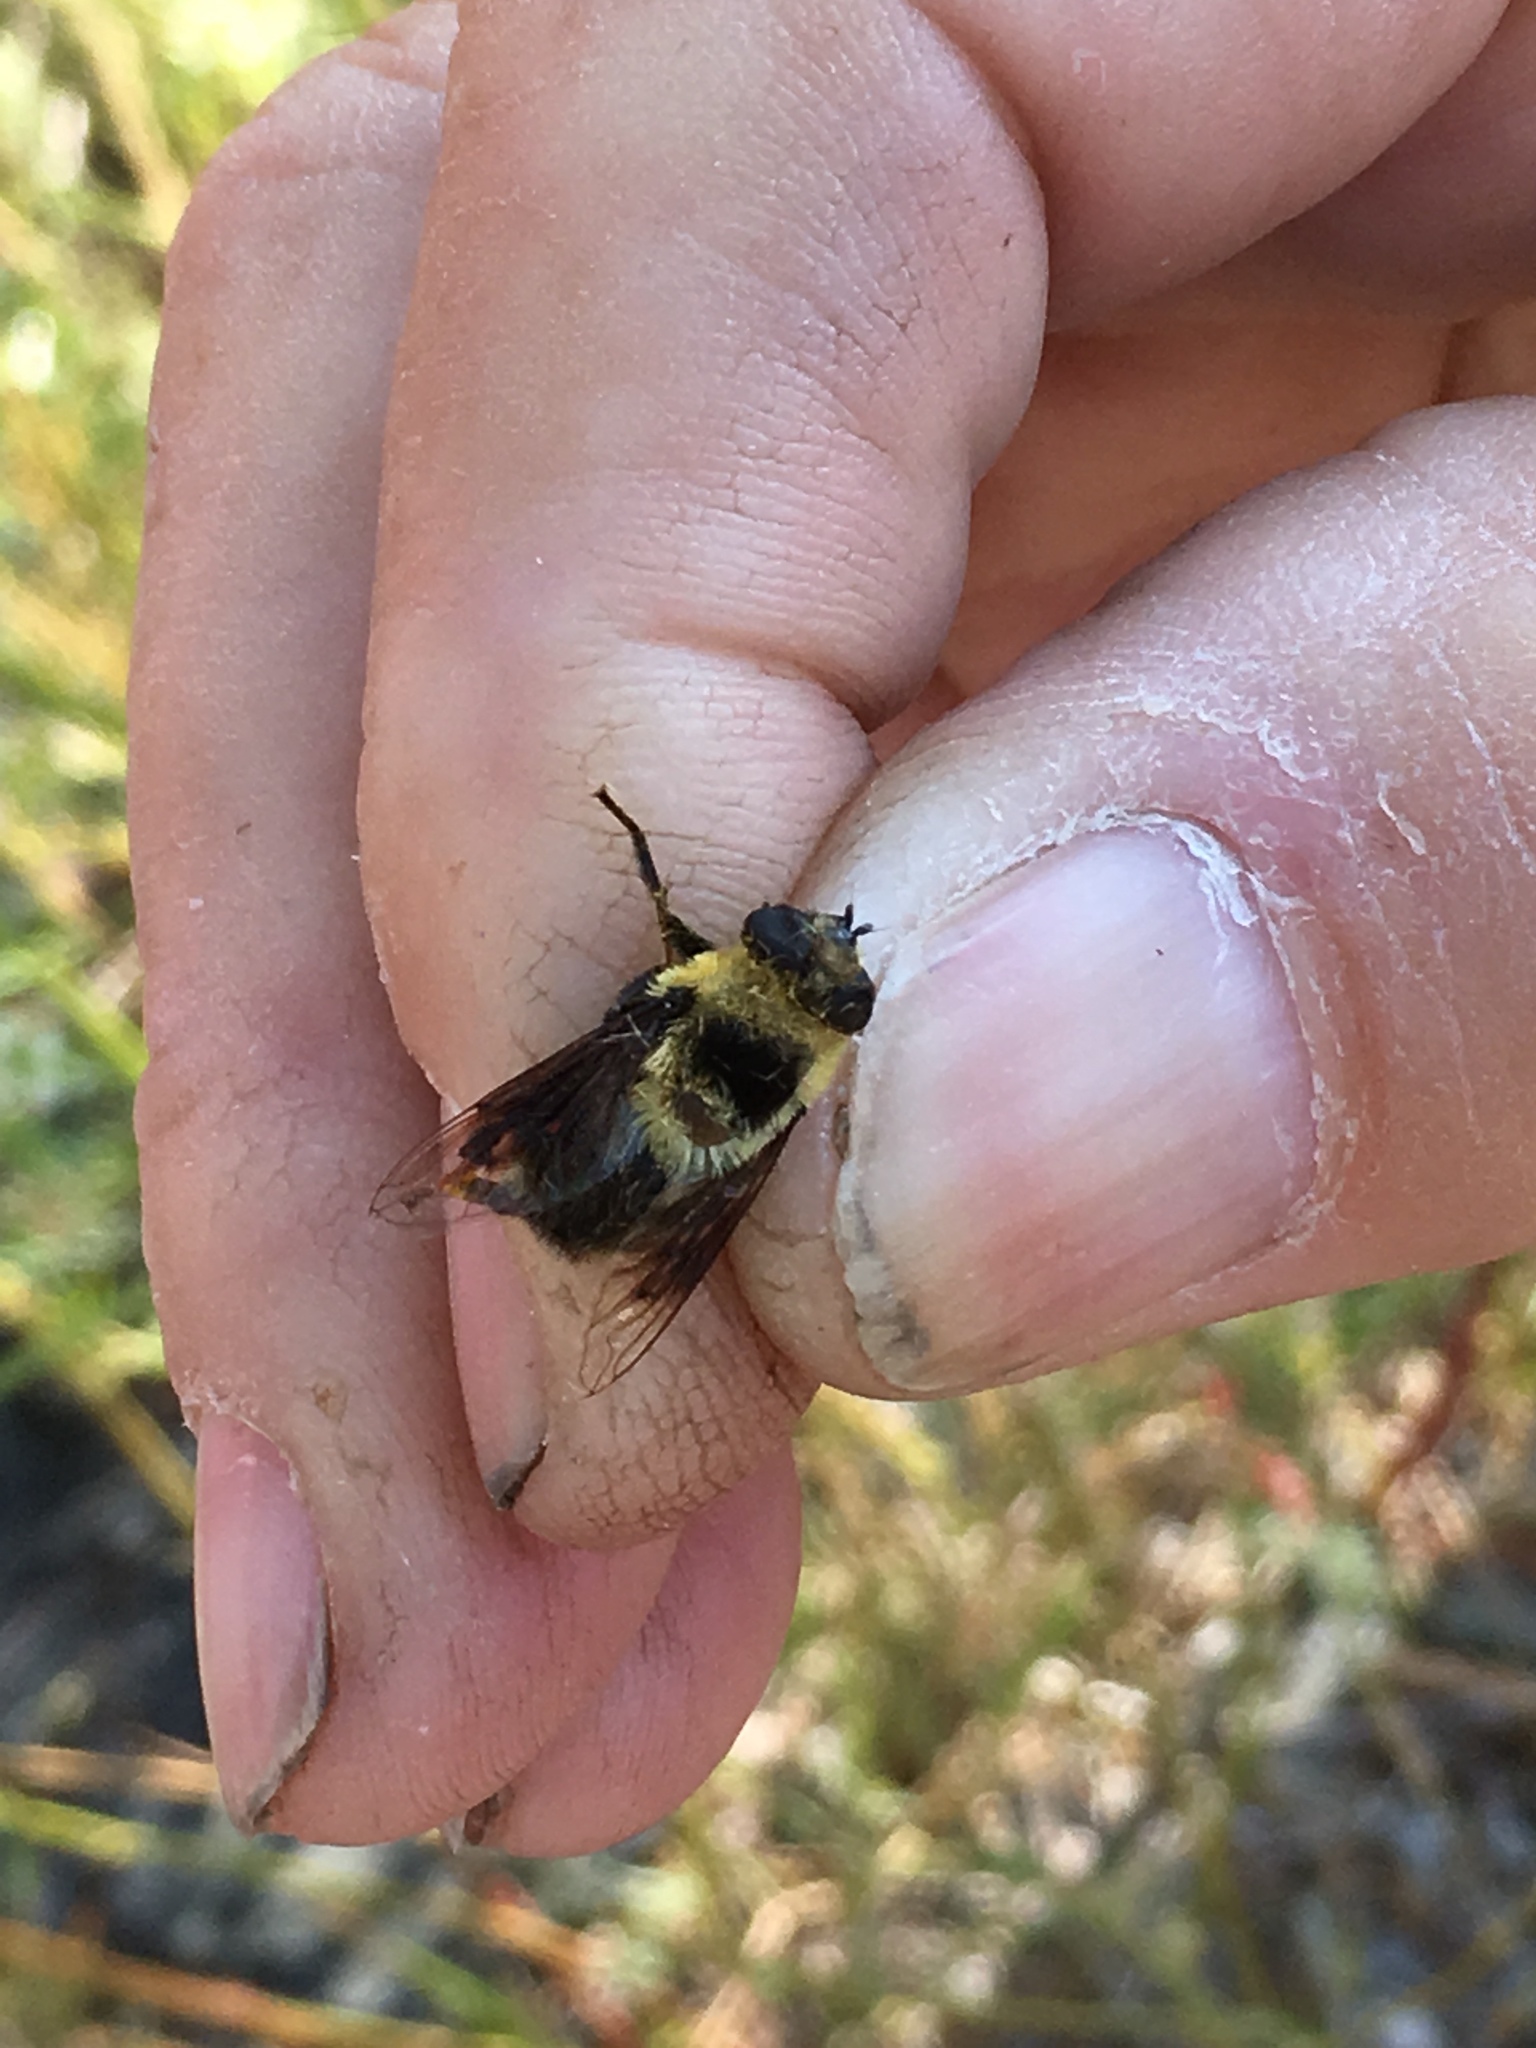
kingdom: Animalia
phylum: Arthropoda
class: Insecta
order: Diptera
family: Syrphidae
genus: Eristalis
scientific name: Eristalis flavipes
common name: Orange-legged drone fly
